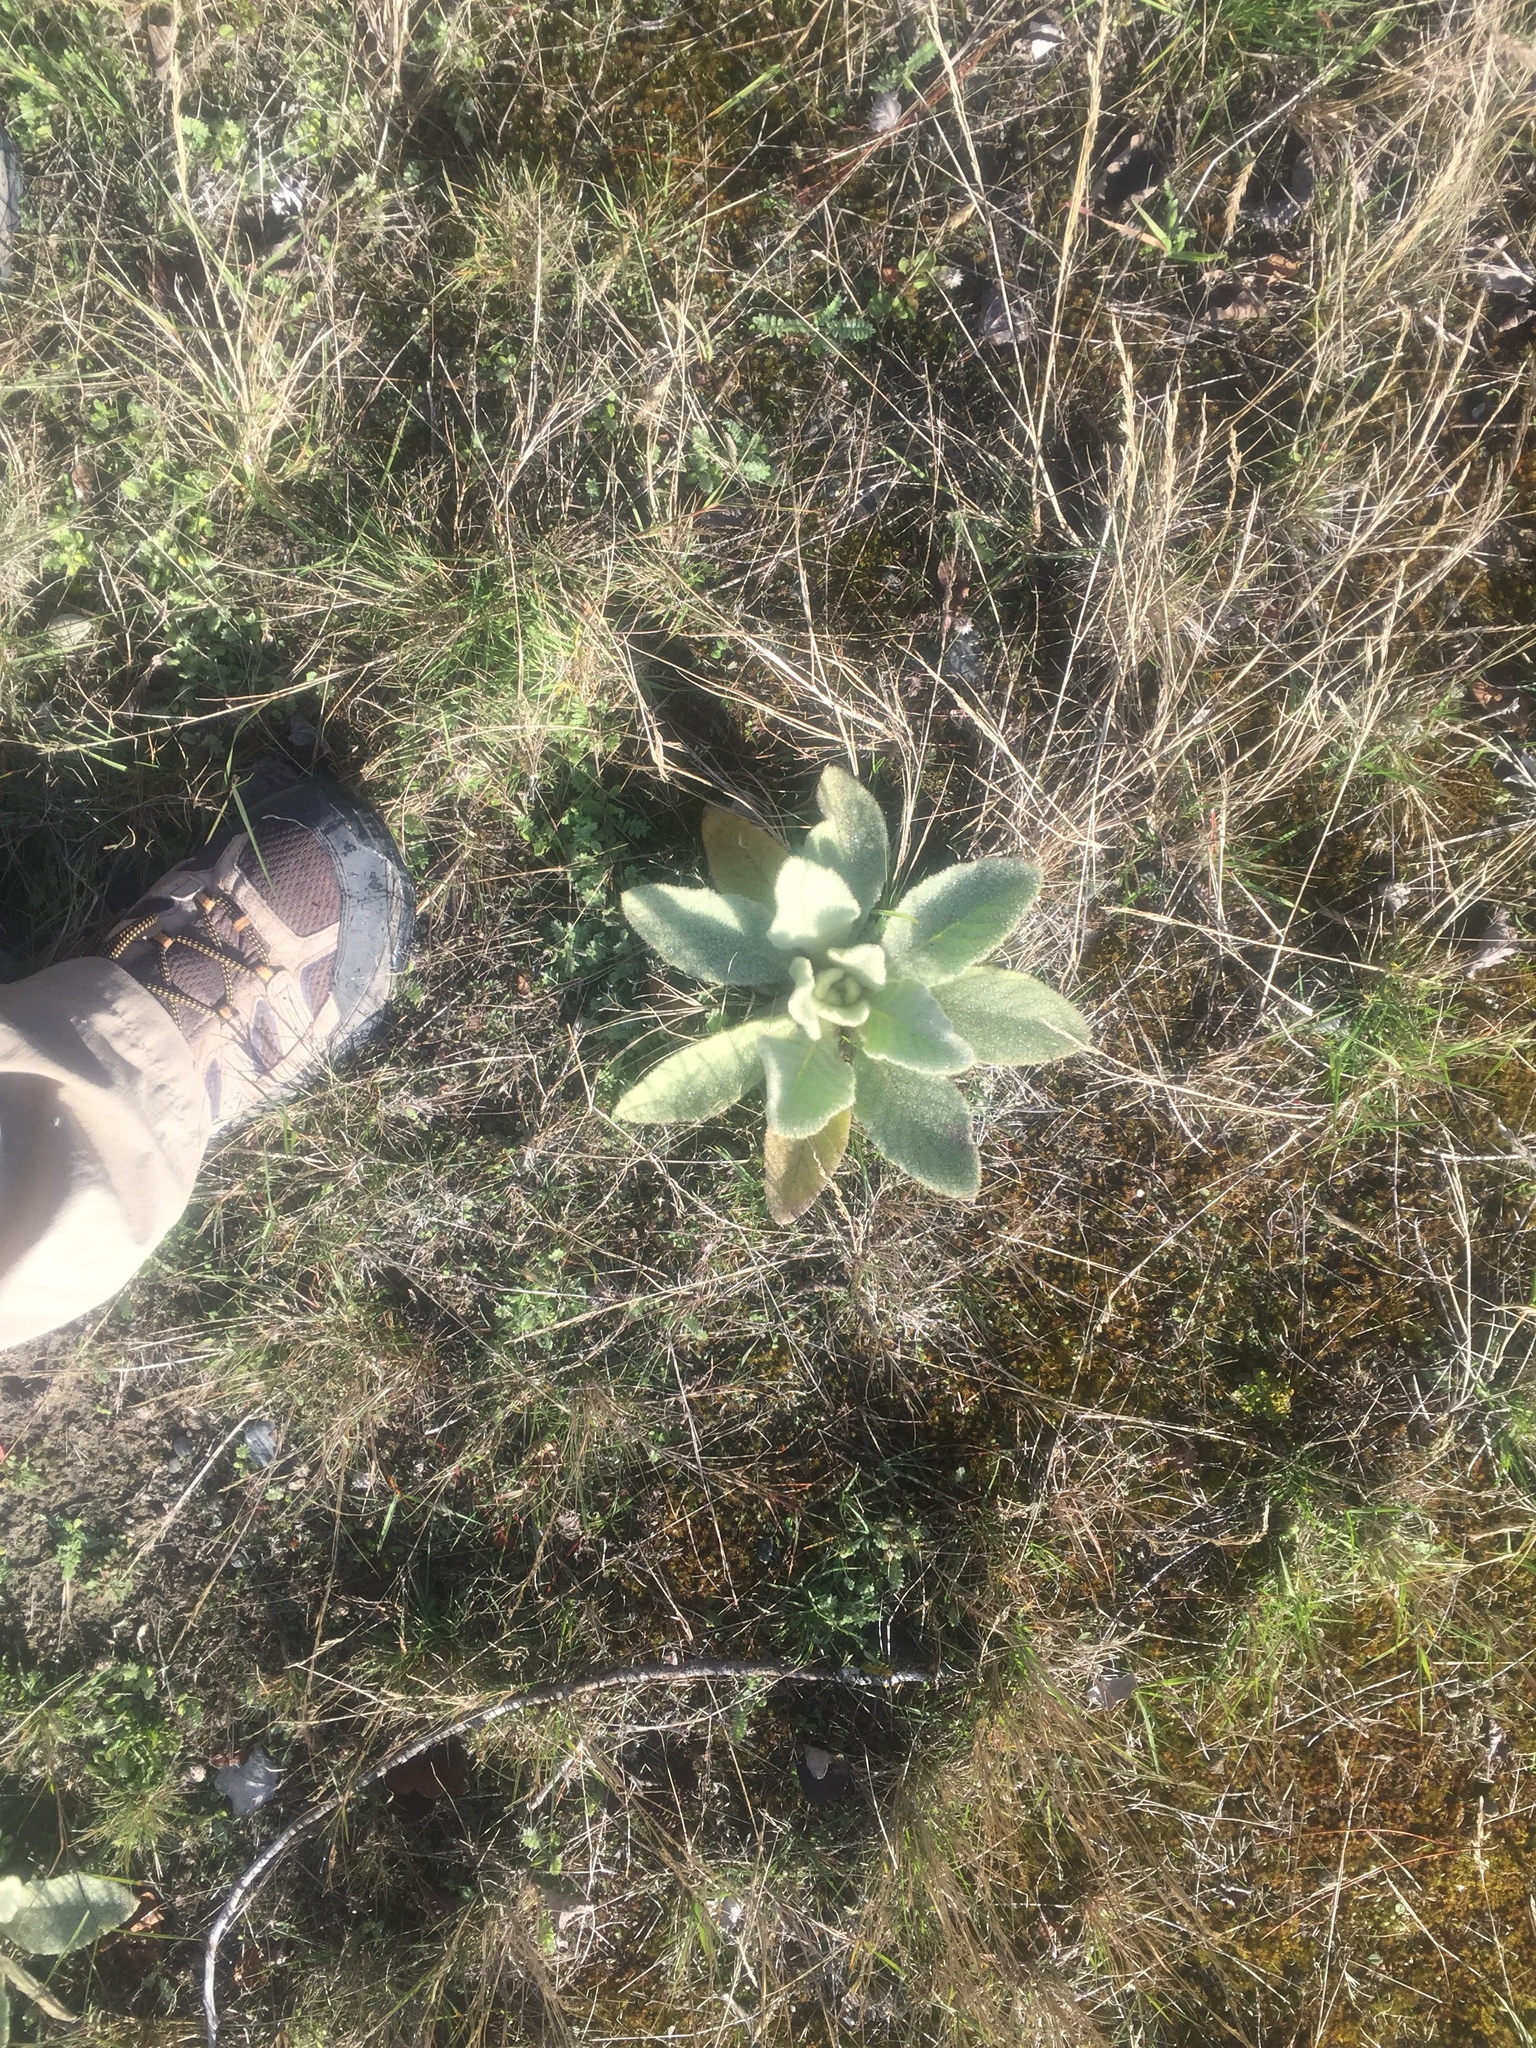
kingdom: Plantae
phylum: Tracheophyta
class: Magnoliopsida
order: Lamiales
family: Scrophulariaceae
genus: Verbascum
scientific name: Verbascum thapsus
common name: Common mullein
